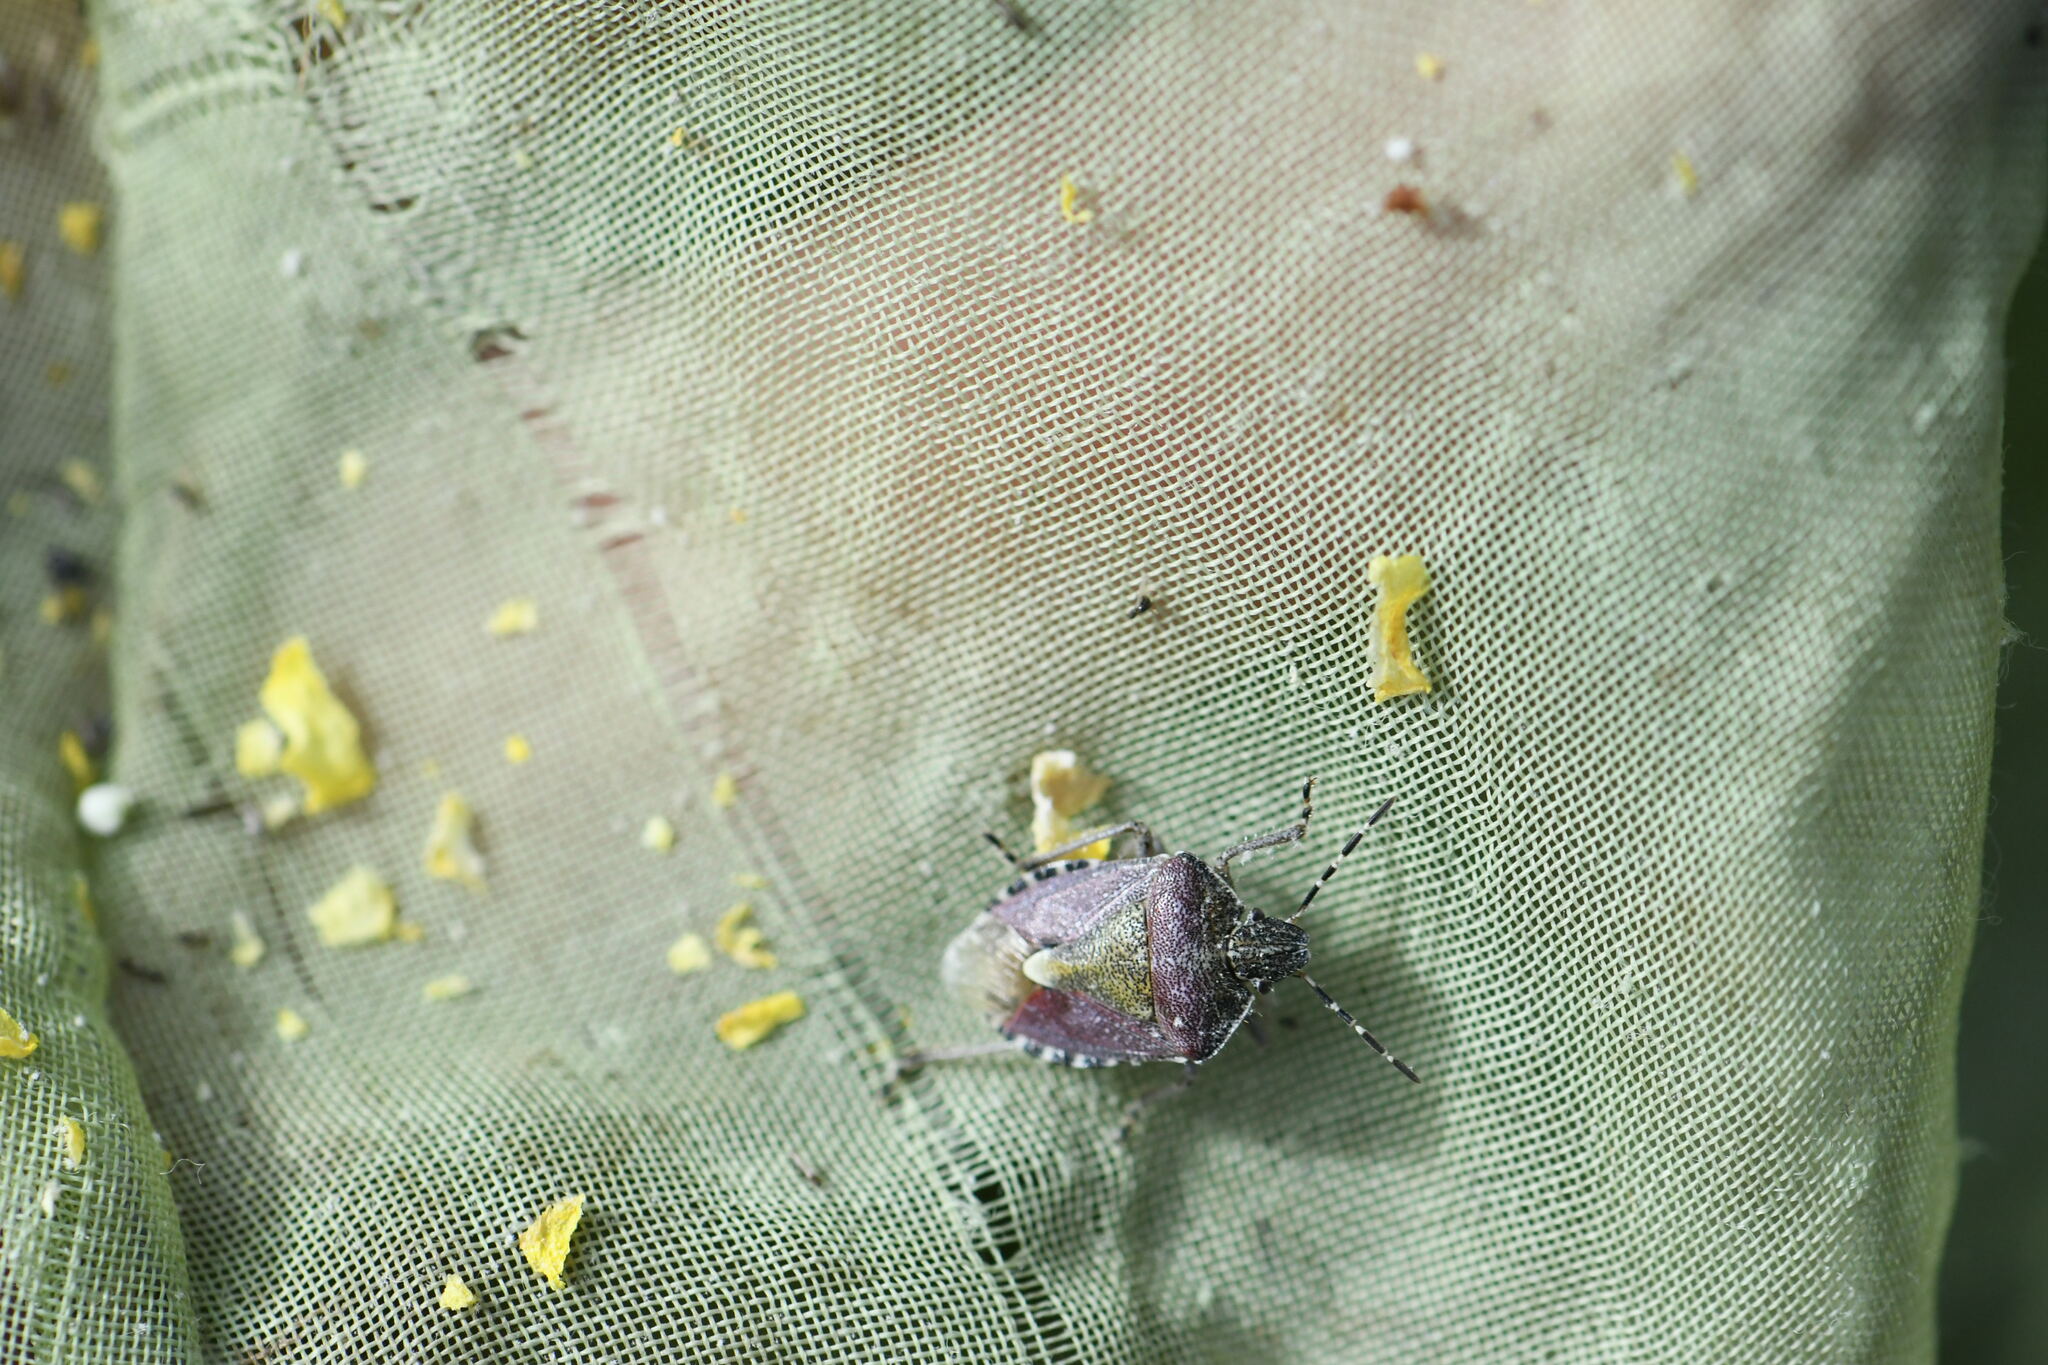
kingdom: Animalia
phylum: Arthropoda
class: Insecta
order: Hemiptera
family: Pentatomidae
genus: Dolycoris
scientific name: Dolycoris baccarum
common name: Sloe bug
